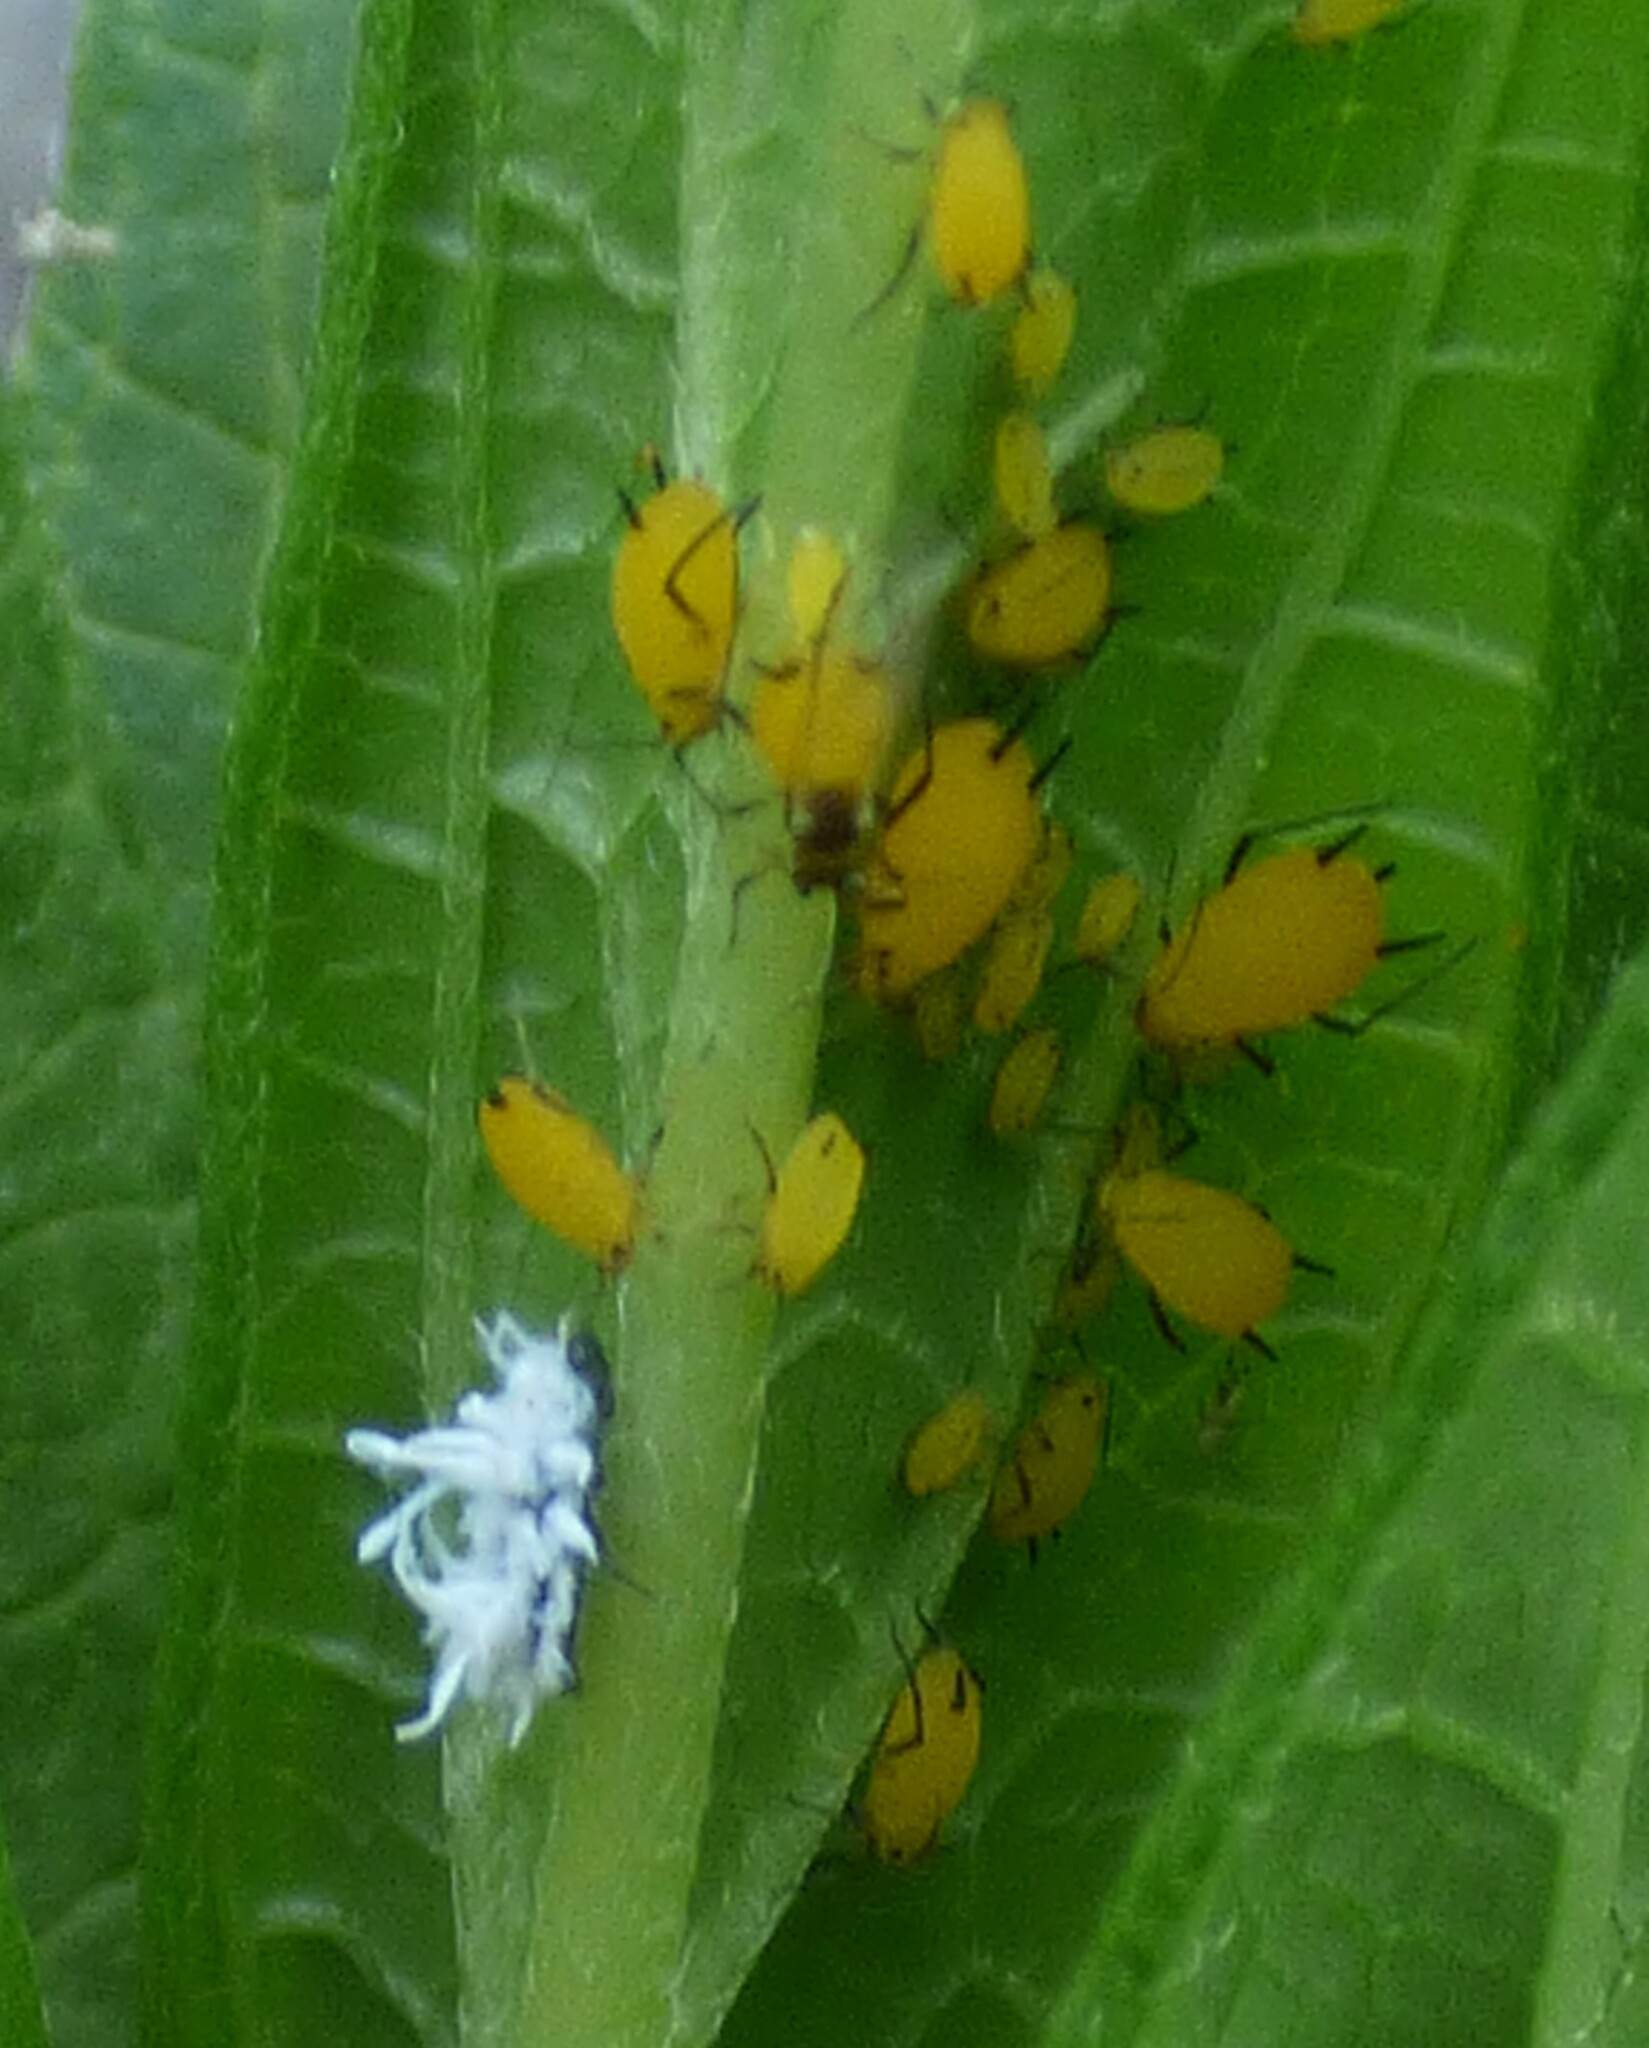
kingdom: Animalia
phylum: Arthropoda
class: Insecta
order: Hemiptera
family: Aphididae
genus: Aphis
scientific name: Aphis nerii
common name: Oleander aphid
